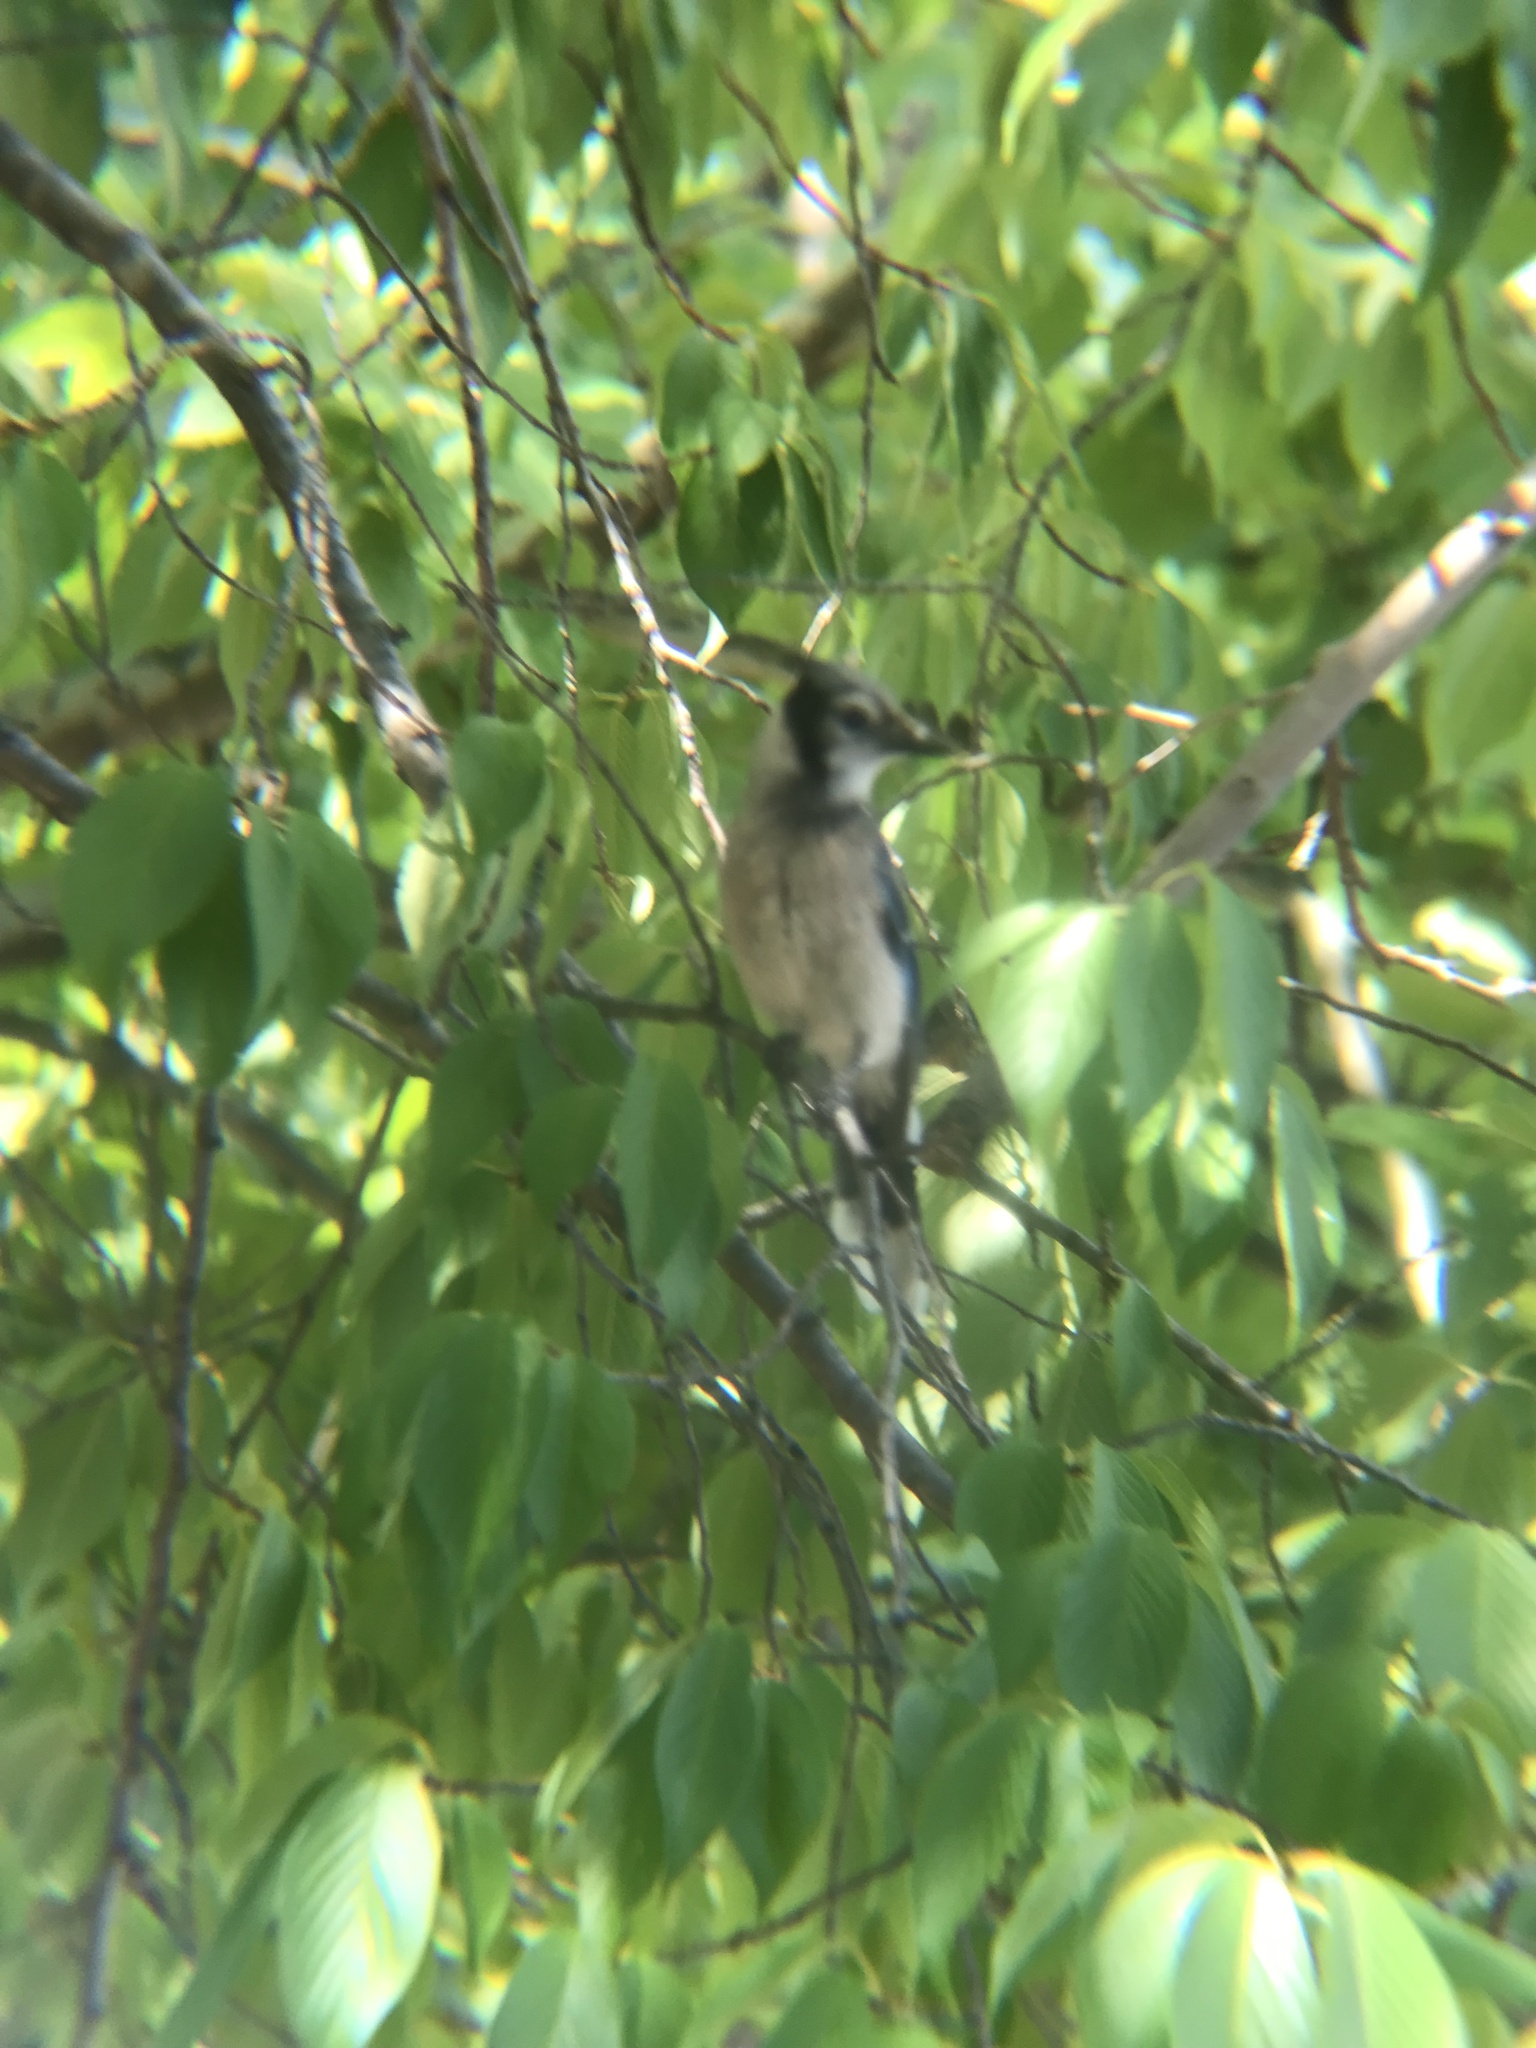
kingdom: Animalia
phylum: Chordata
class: Aves
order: Passeriformes
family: Corvidae
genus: Cyanocitta
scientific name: Cyanocitta cristata
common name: Blue jay
